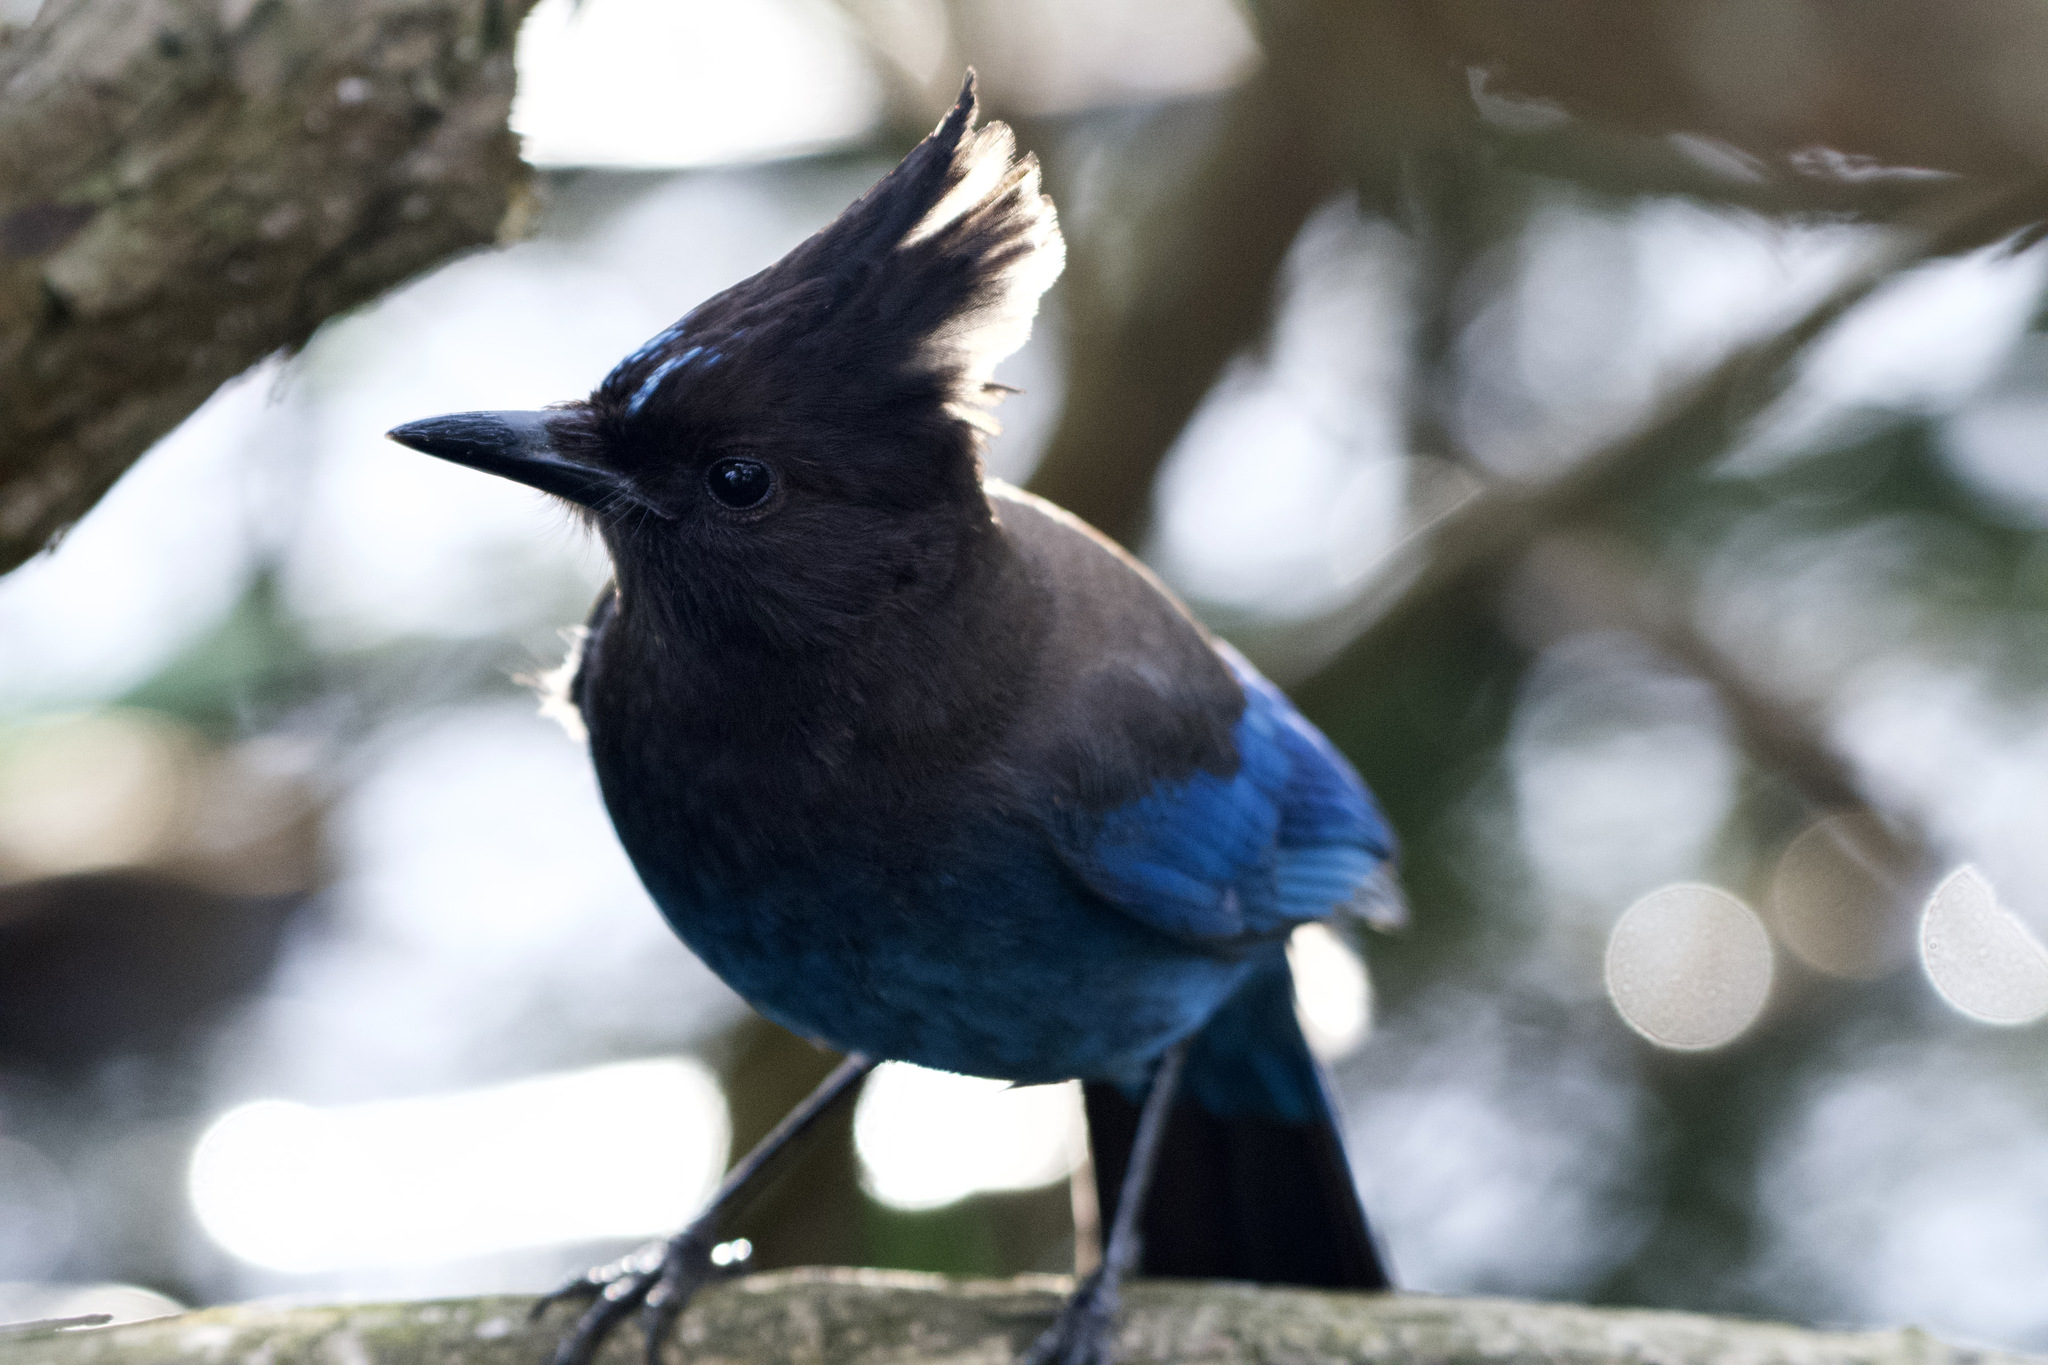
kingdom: Animalia
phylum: Chordata
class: Aves
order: Passeriformes
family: Corvidae
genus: Cyanocitta
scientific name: Cyanocitta stelleri
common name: Steller's jay
